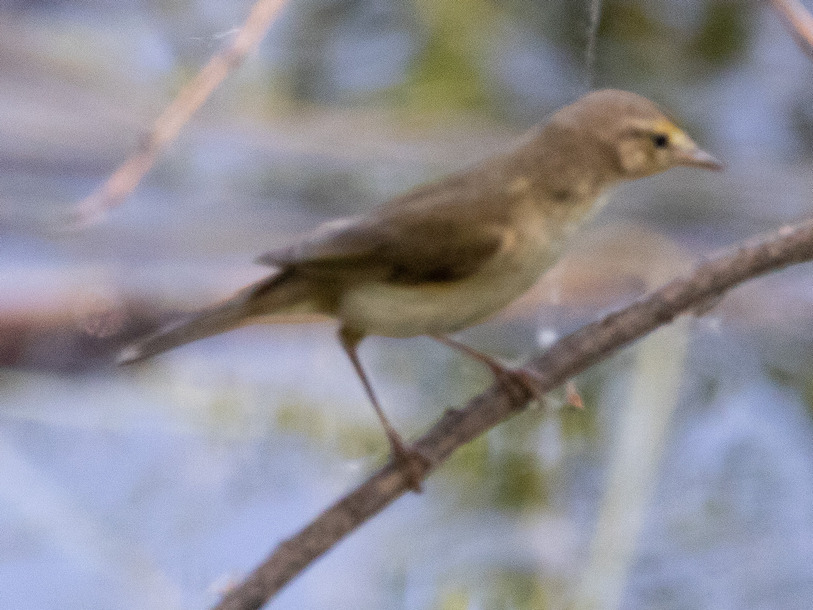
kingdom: Animalia
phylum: Chordata
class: Aves
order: Passeriformes
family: Phylloscopidae
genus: Phylloscopus
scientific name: Phylloscopus trochilus
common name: Willow warbler
